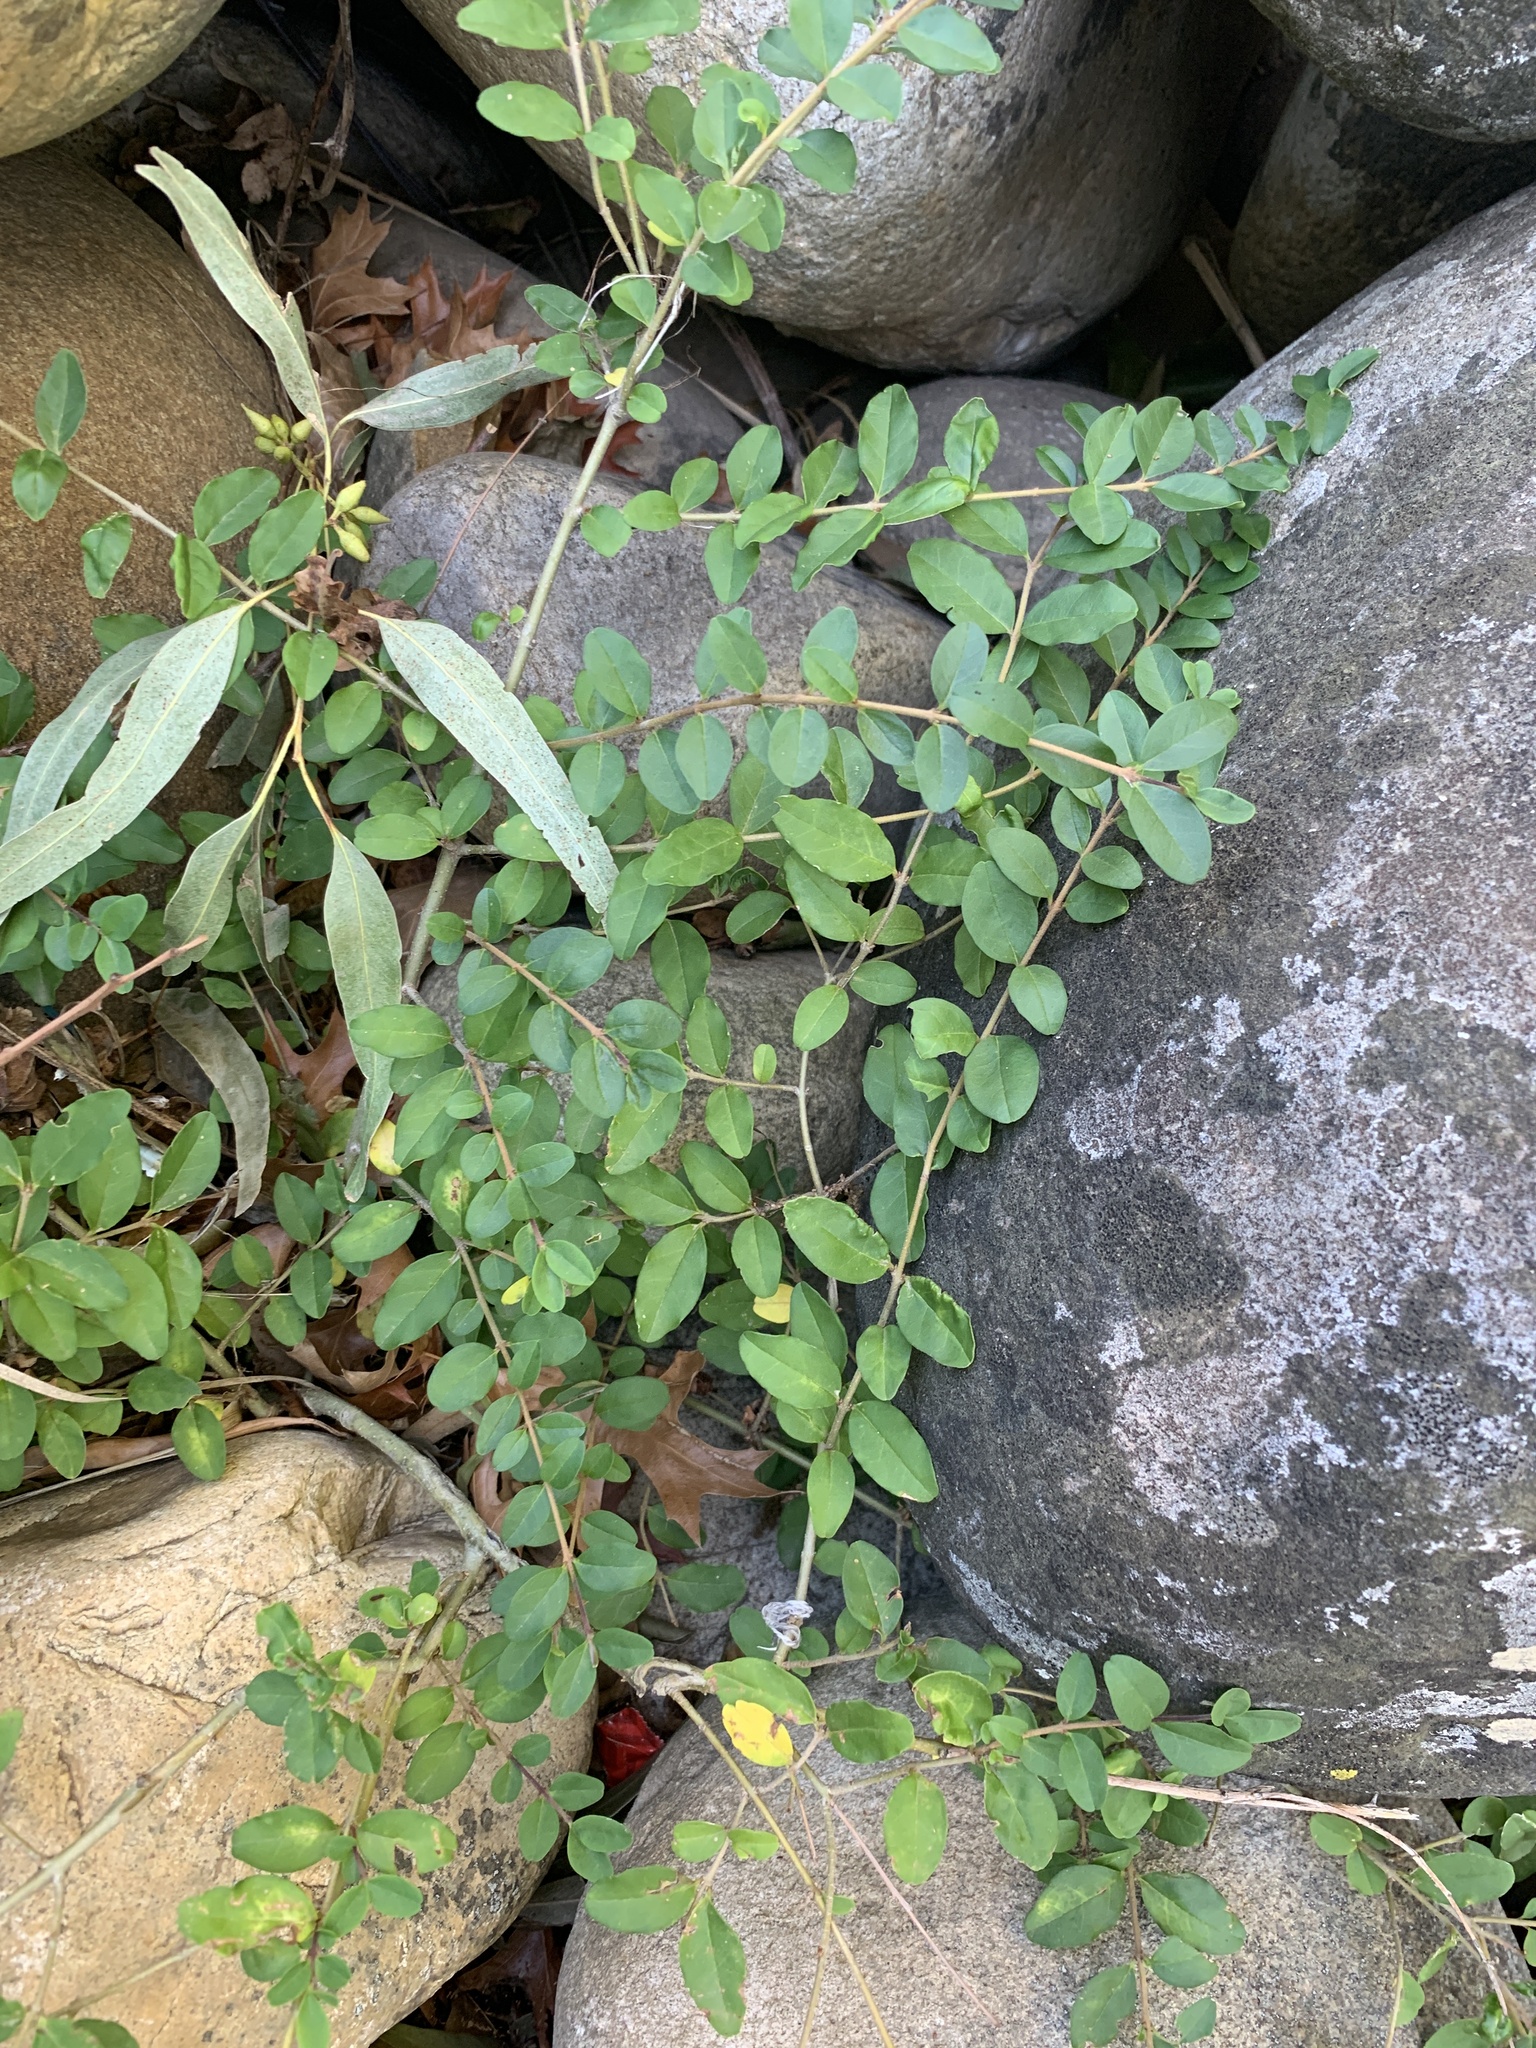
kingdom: Plantae
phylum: Tracheophyta
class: Magnoliopsida
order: Lamiales
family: Oleaceae
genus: Ligustrum
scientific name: Ligustrum sinense
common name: Chinese privet
